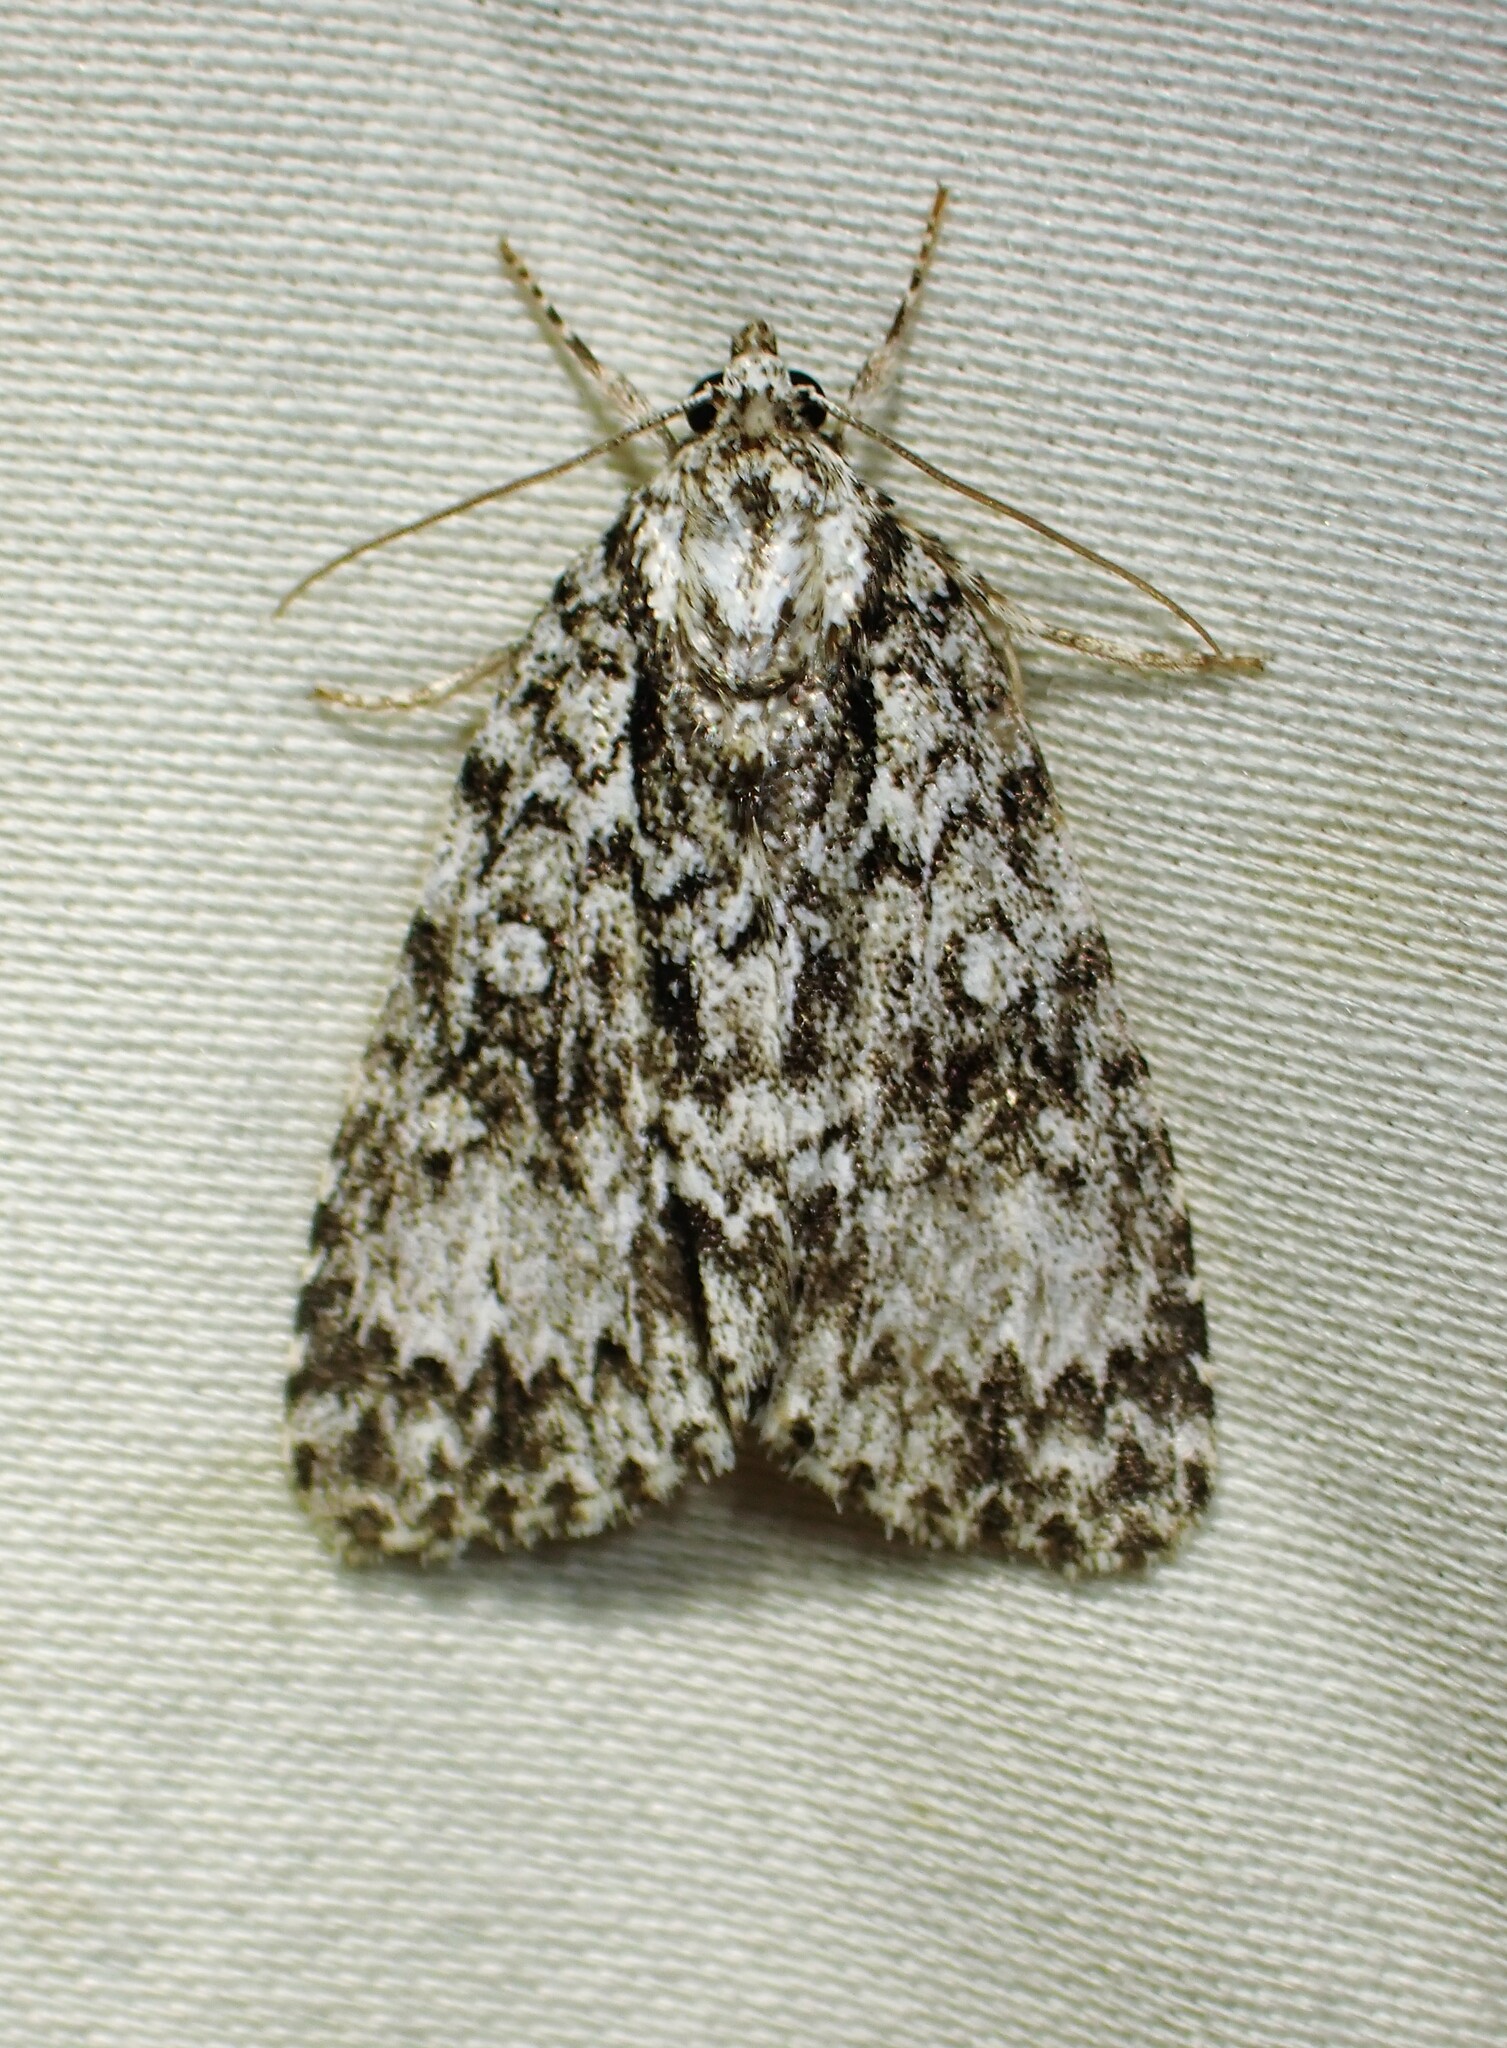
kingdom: Animalia
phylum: Arthropoda
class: Insecta
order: Lepidoptera
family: Noctuidae
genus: Acronicta
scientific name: Acronicta fragilis
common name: Fragile dagger
